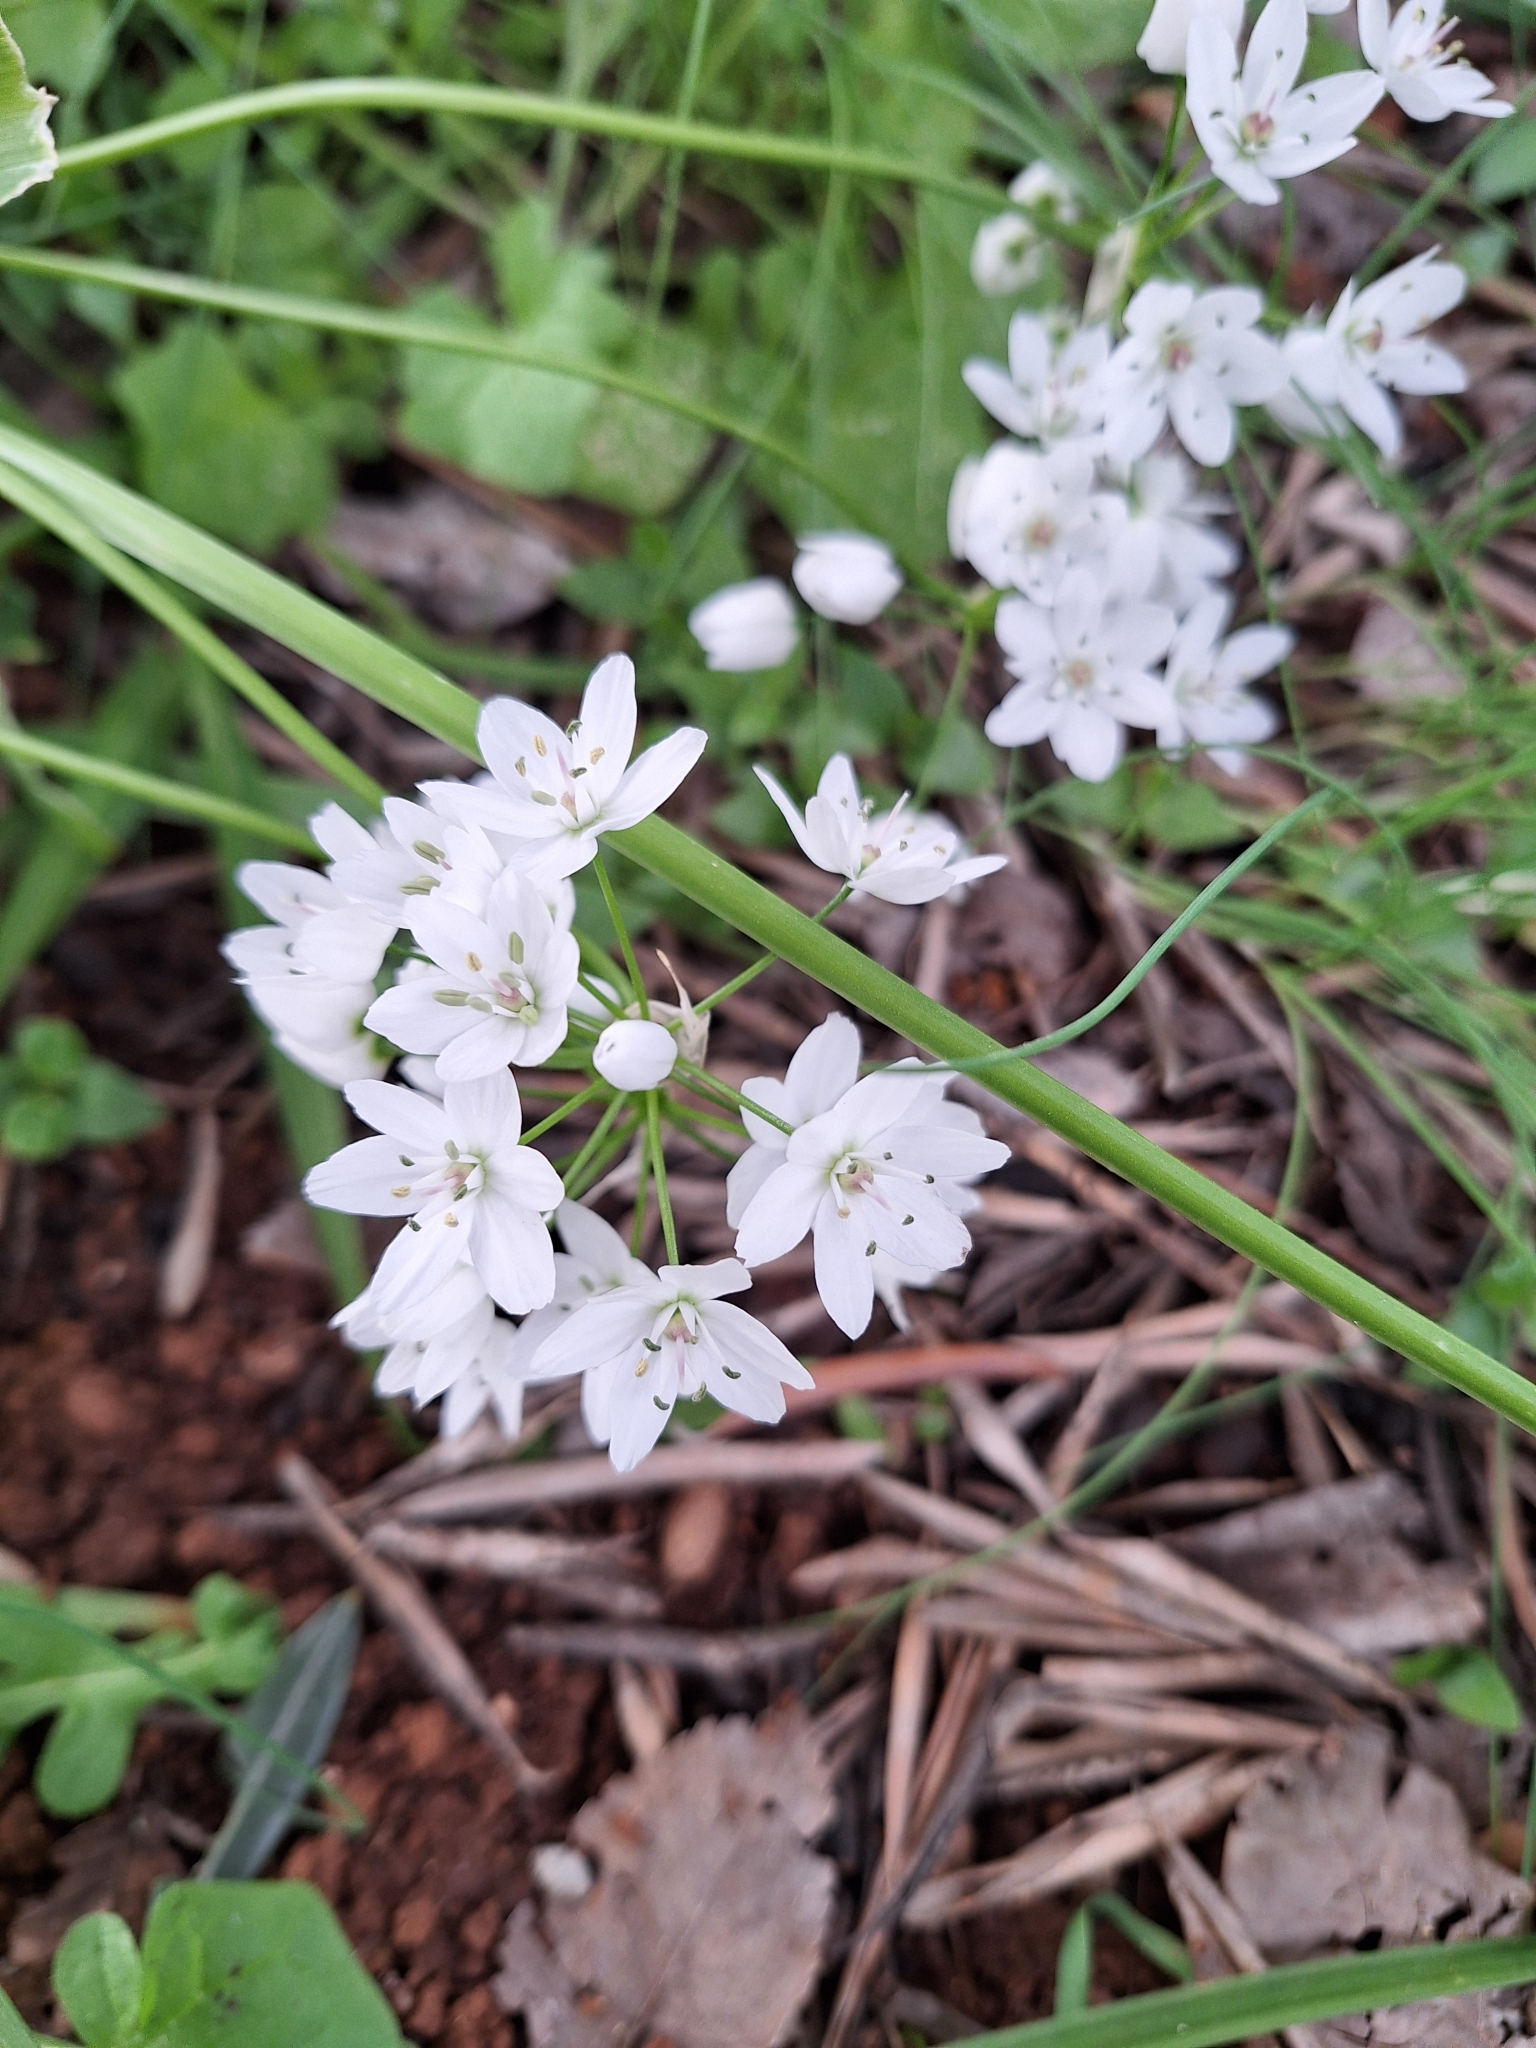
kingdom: Plantae
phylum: Tracheophyta
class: Liliopsida
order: Asparagales
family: Amaryllidaceae
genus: Allium
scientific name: Allium neapolitanum
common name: Neapolitan garlic
